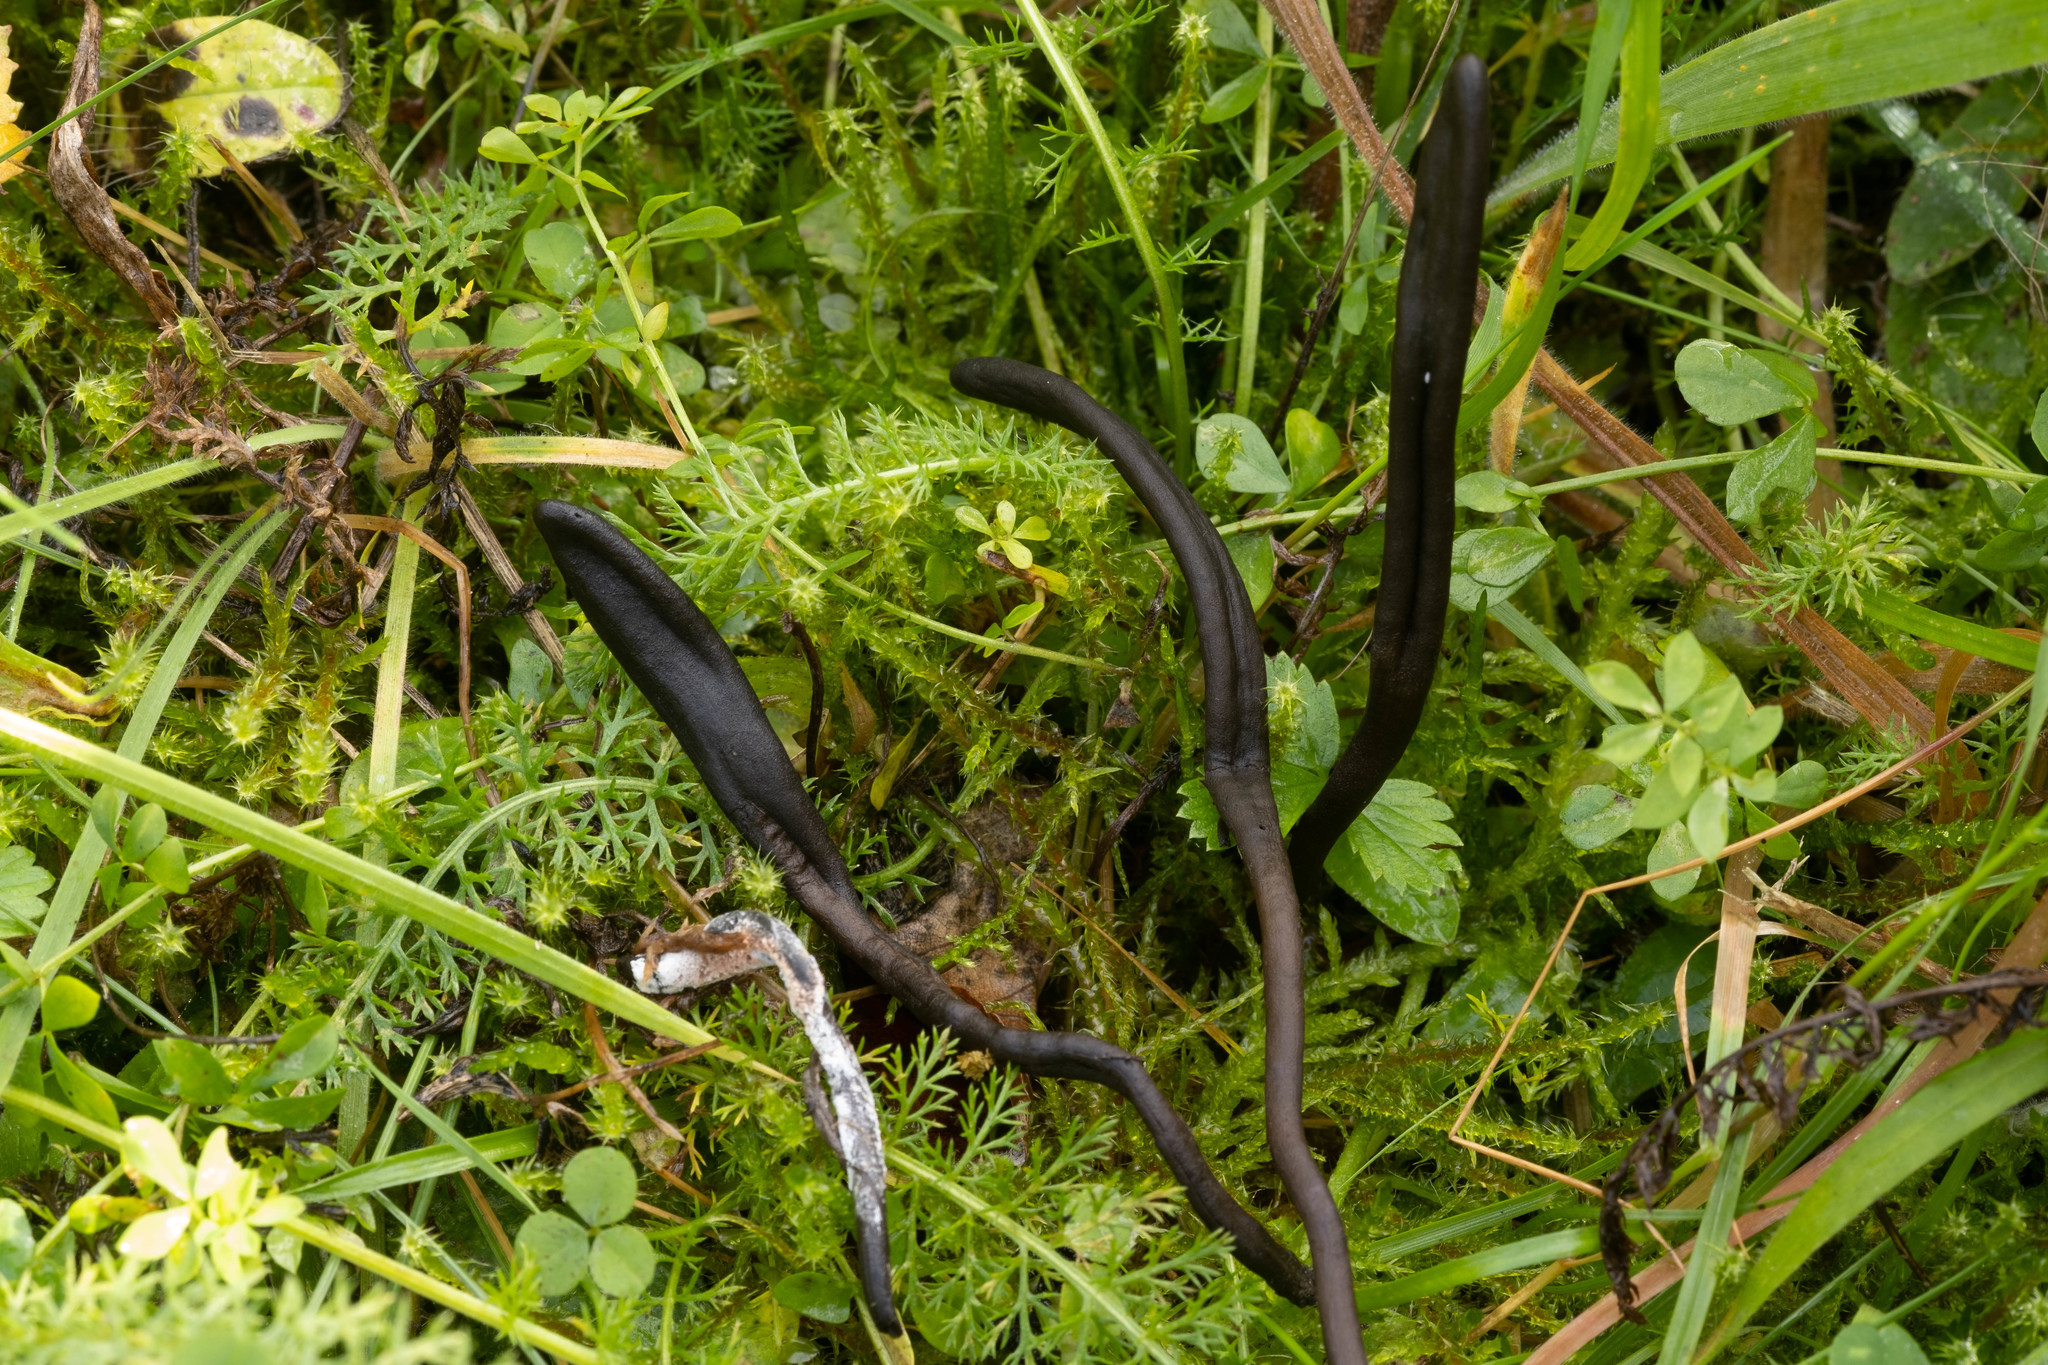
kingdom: Fungi
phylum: Ascomycota
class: Geoglossomycetes
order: Geoglossales
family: Geoglossaceae
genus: Geoglossum
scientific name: Geoglossum umbratile
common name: Plain earthtongue
